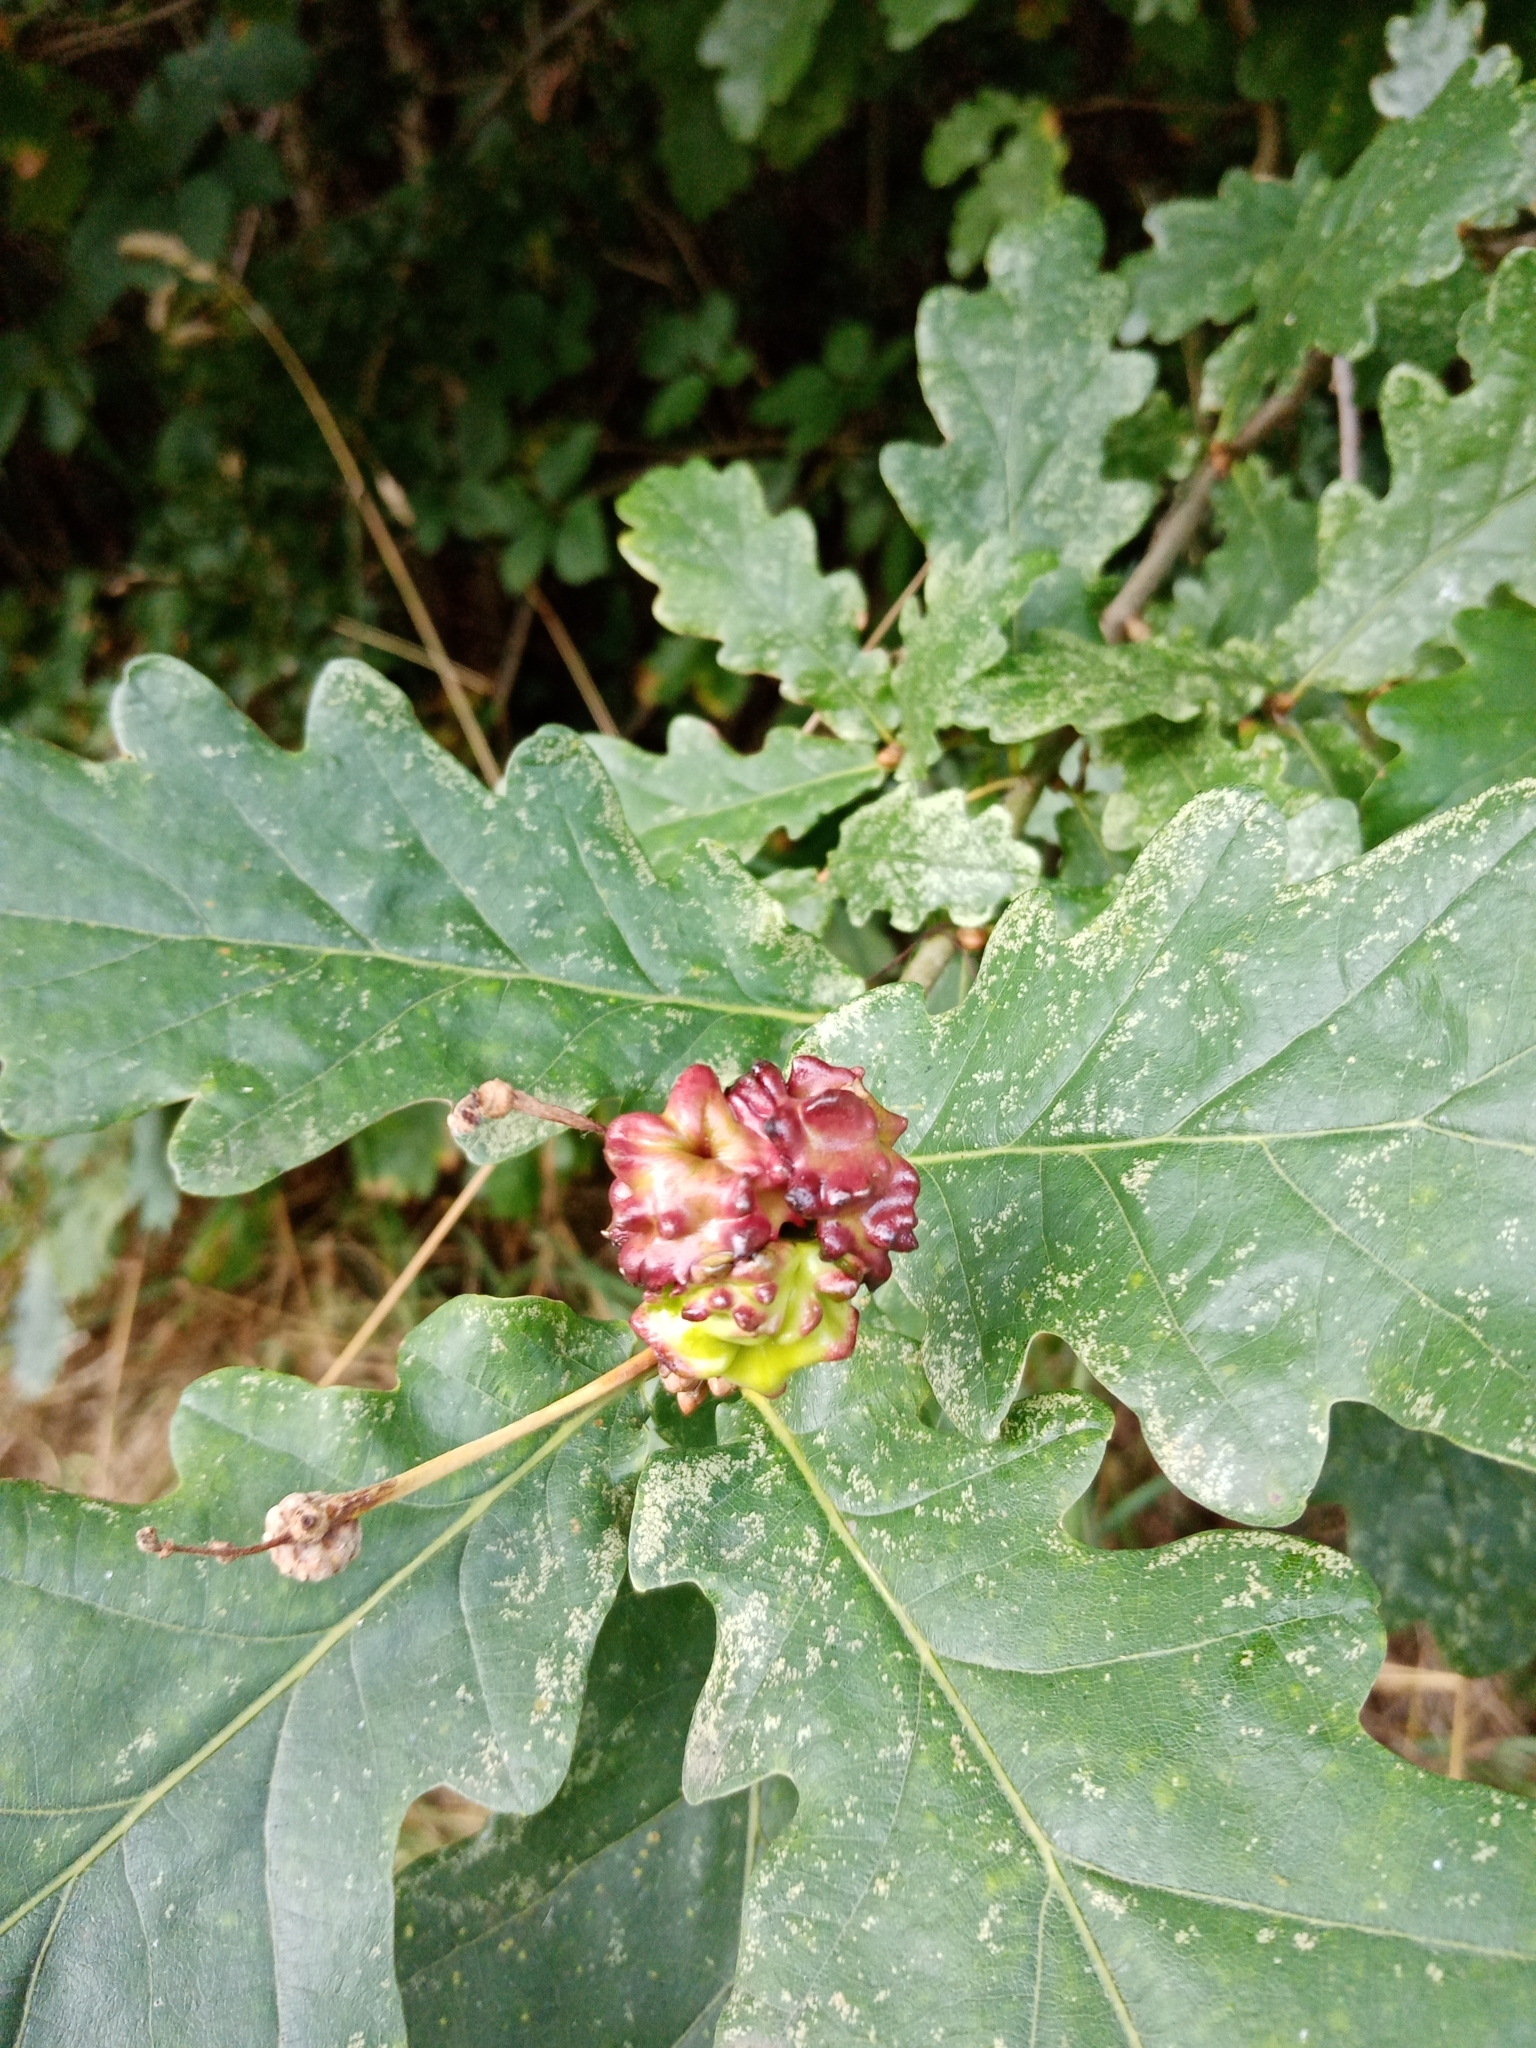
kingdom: Animalia
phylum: Arthropoda
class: Insecta
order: Hymenoptera
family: Cynipidae
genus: Andricus
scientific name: Andricus quercuscalicis
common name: Knopper gall
